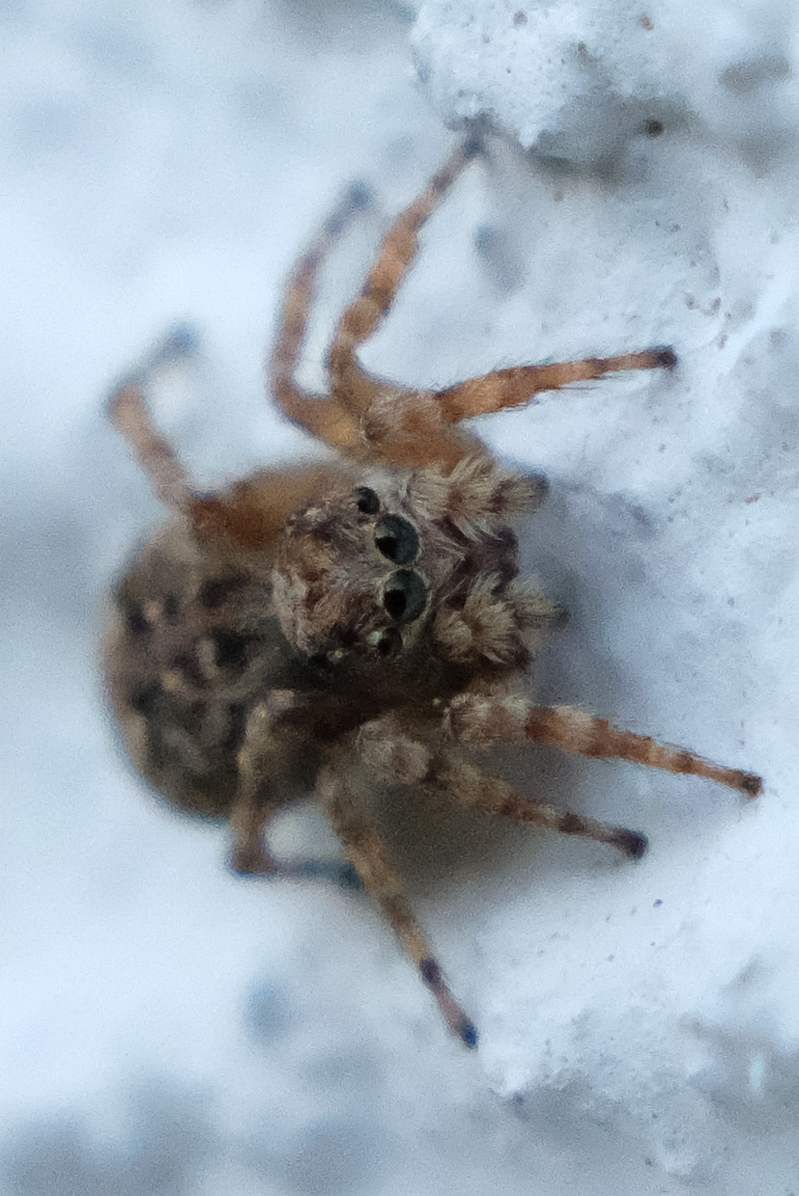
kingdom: Animalia
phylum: Arthropoda
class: Arachnida
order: Araneae
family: Salticidae
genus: Attulus
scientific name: Attulus fasciger
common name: Asiatic wall jumping spider
